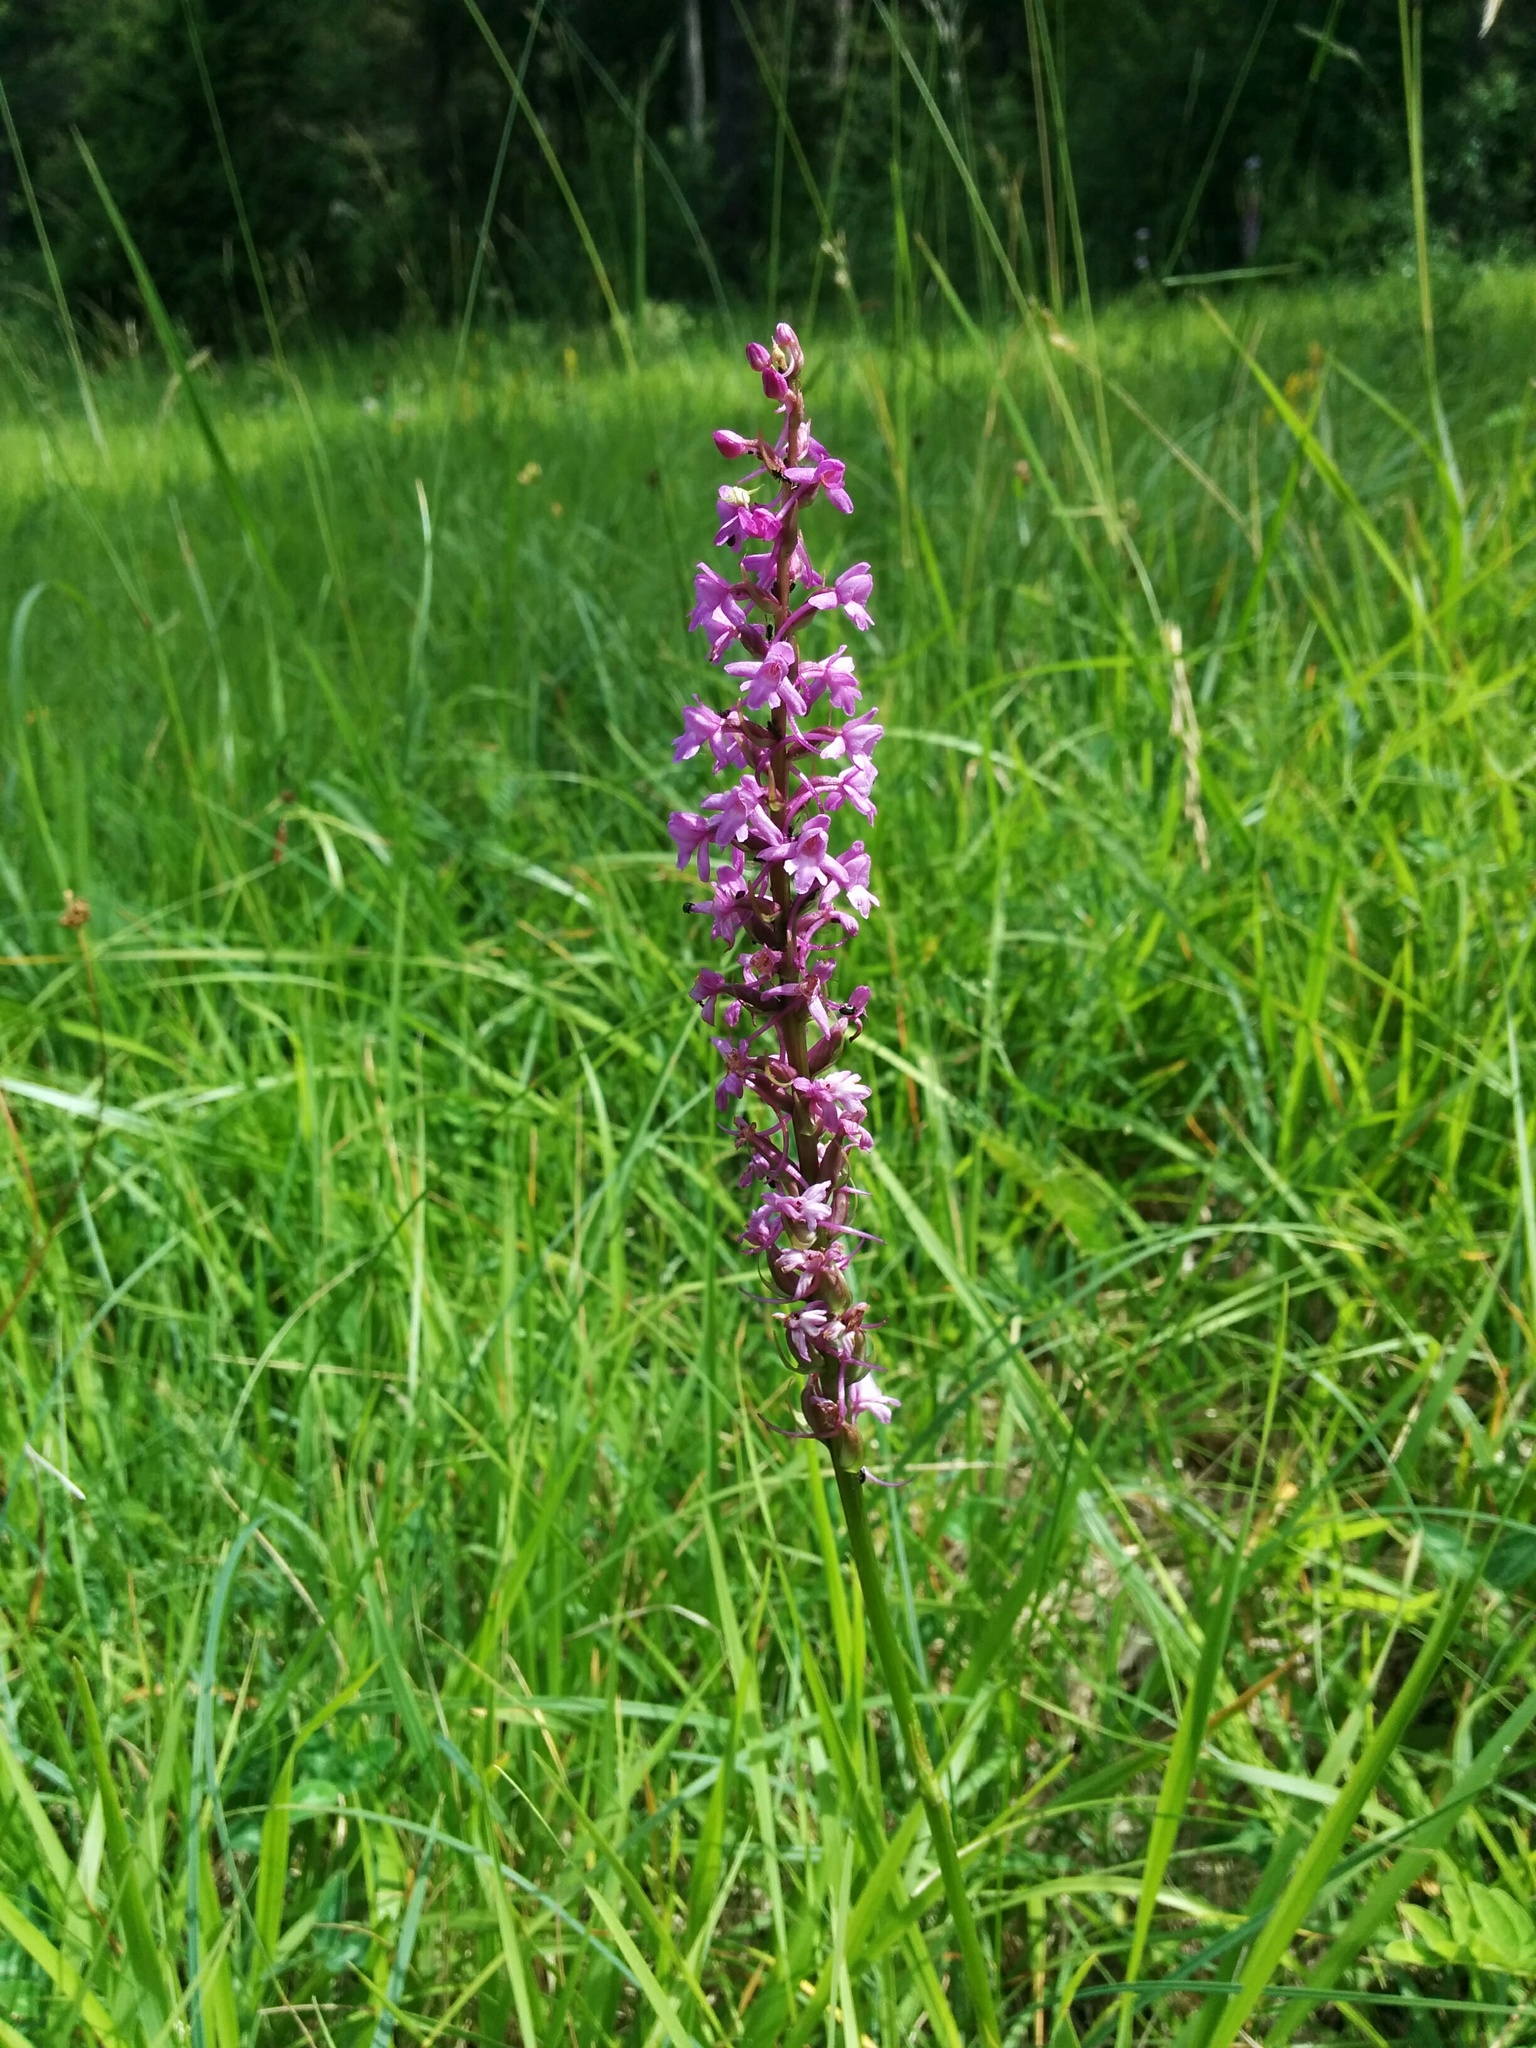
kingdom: Plantae
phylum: Tracheophyta
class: Liliopsida
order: Asparagales
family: Orchidaceae
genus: Gymnadenia
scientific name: Gymnadenia conopsea
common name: Fragrant orchid
